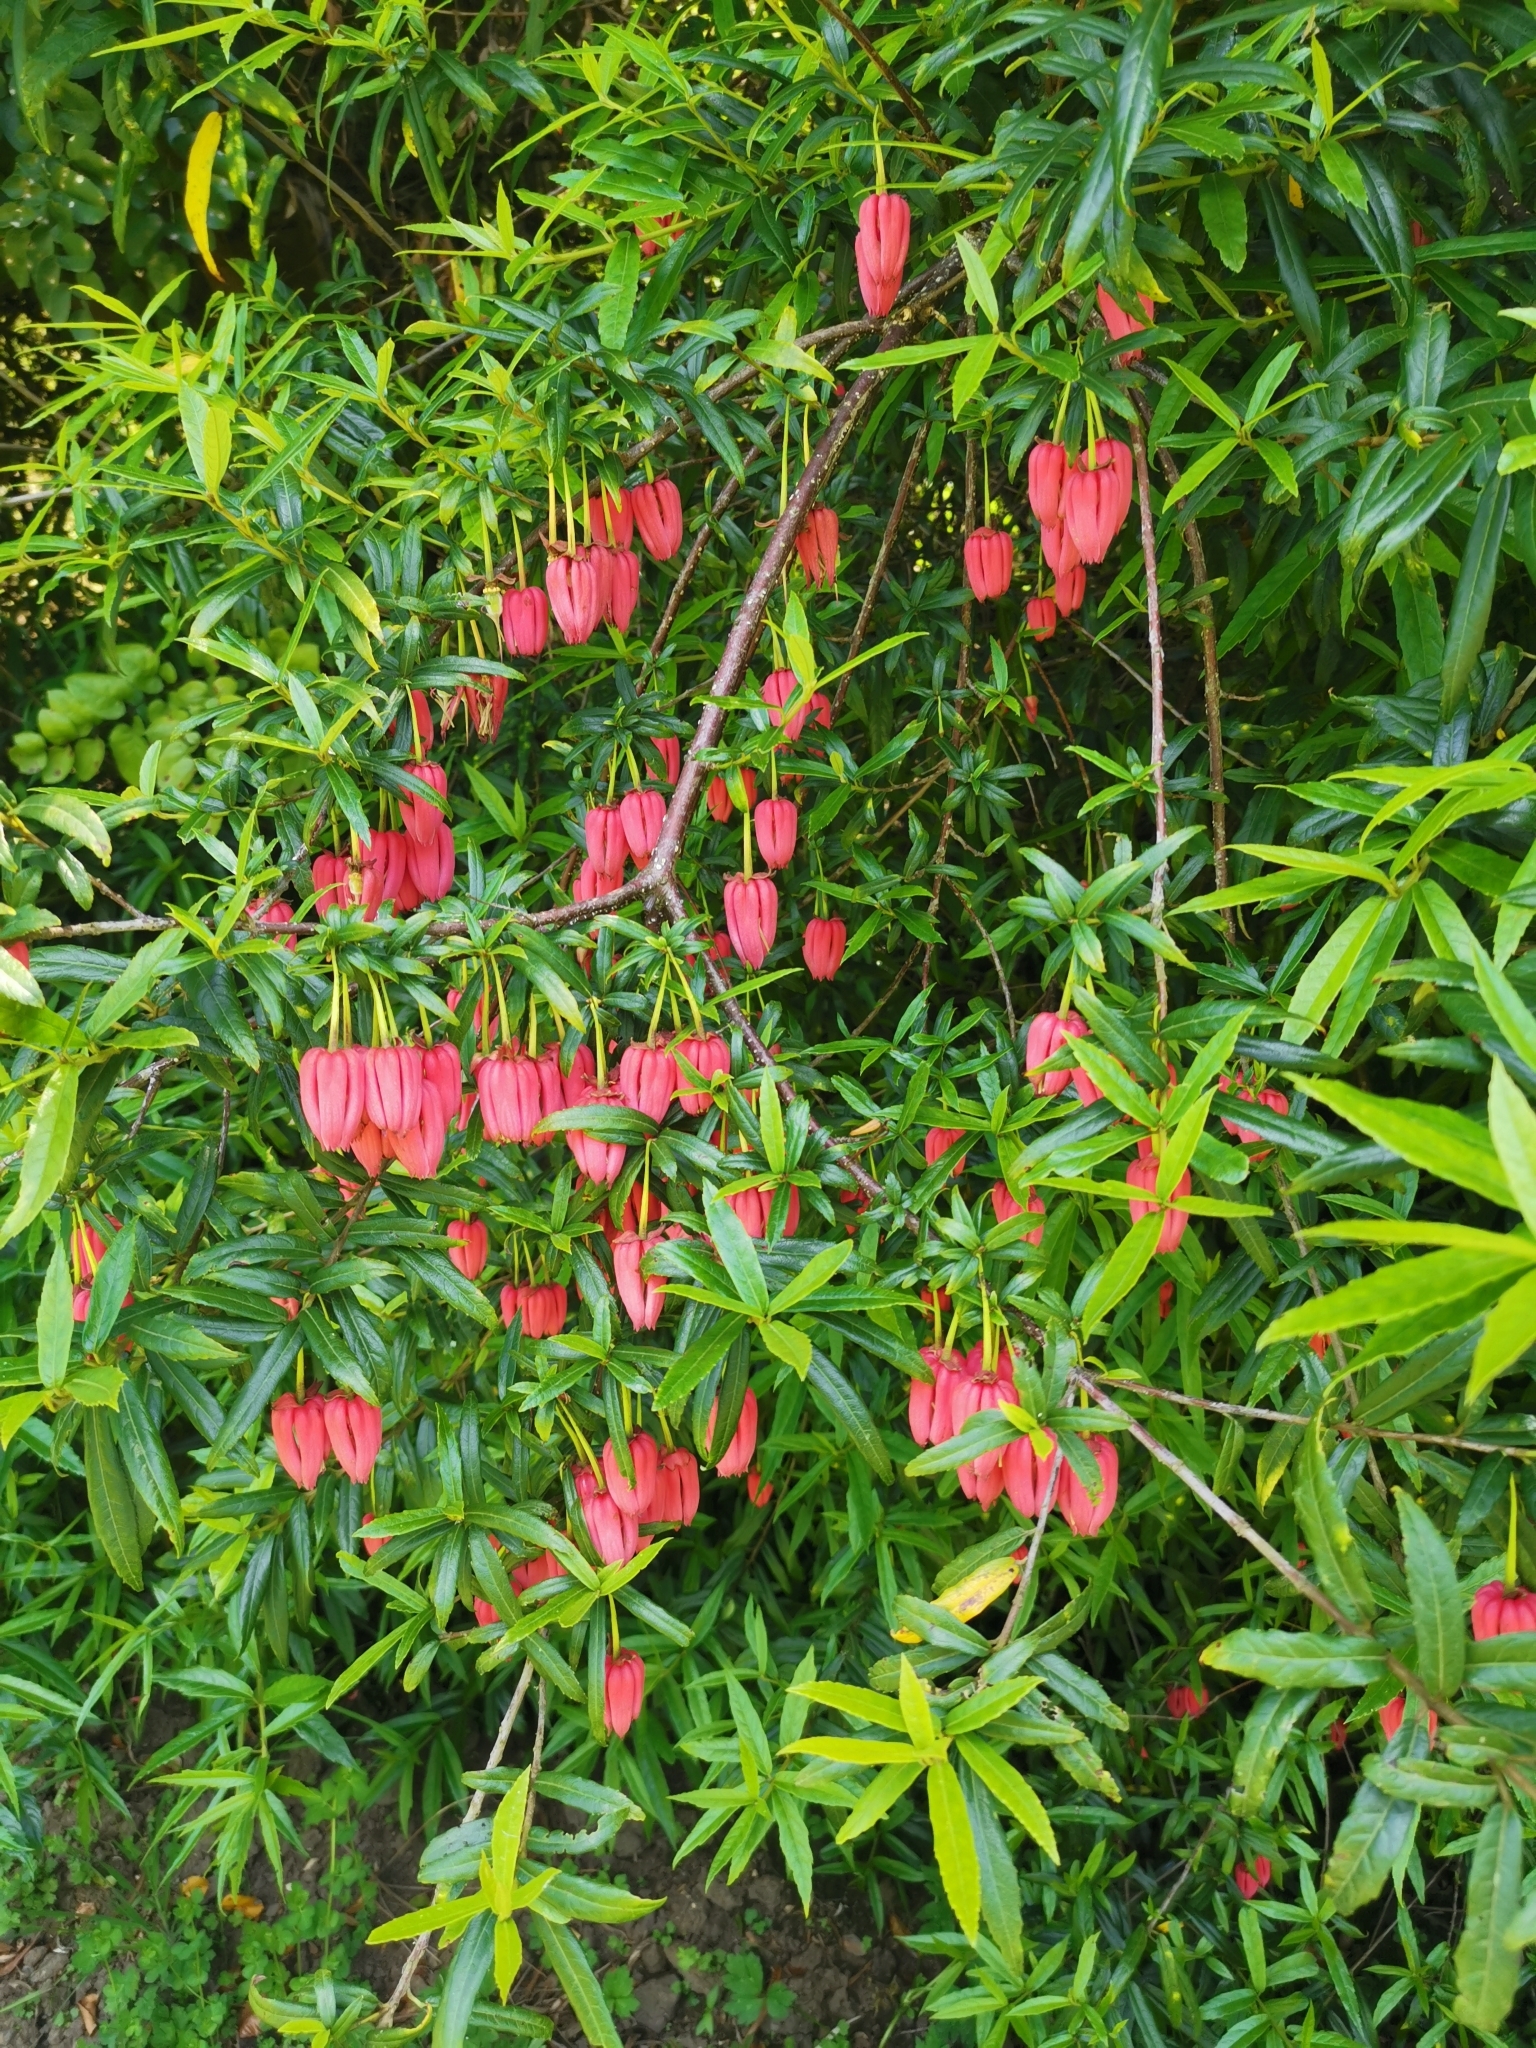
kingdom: Plantae
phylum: Tracheophyta
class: Magnoliopsida
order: Oxalidales
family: Elaeocarpaceae
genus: Crinodendron
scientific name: Crinodendron hookerianum
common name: Lanterntree
